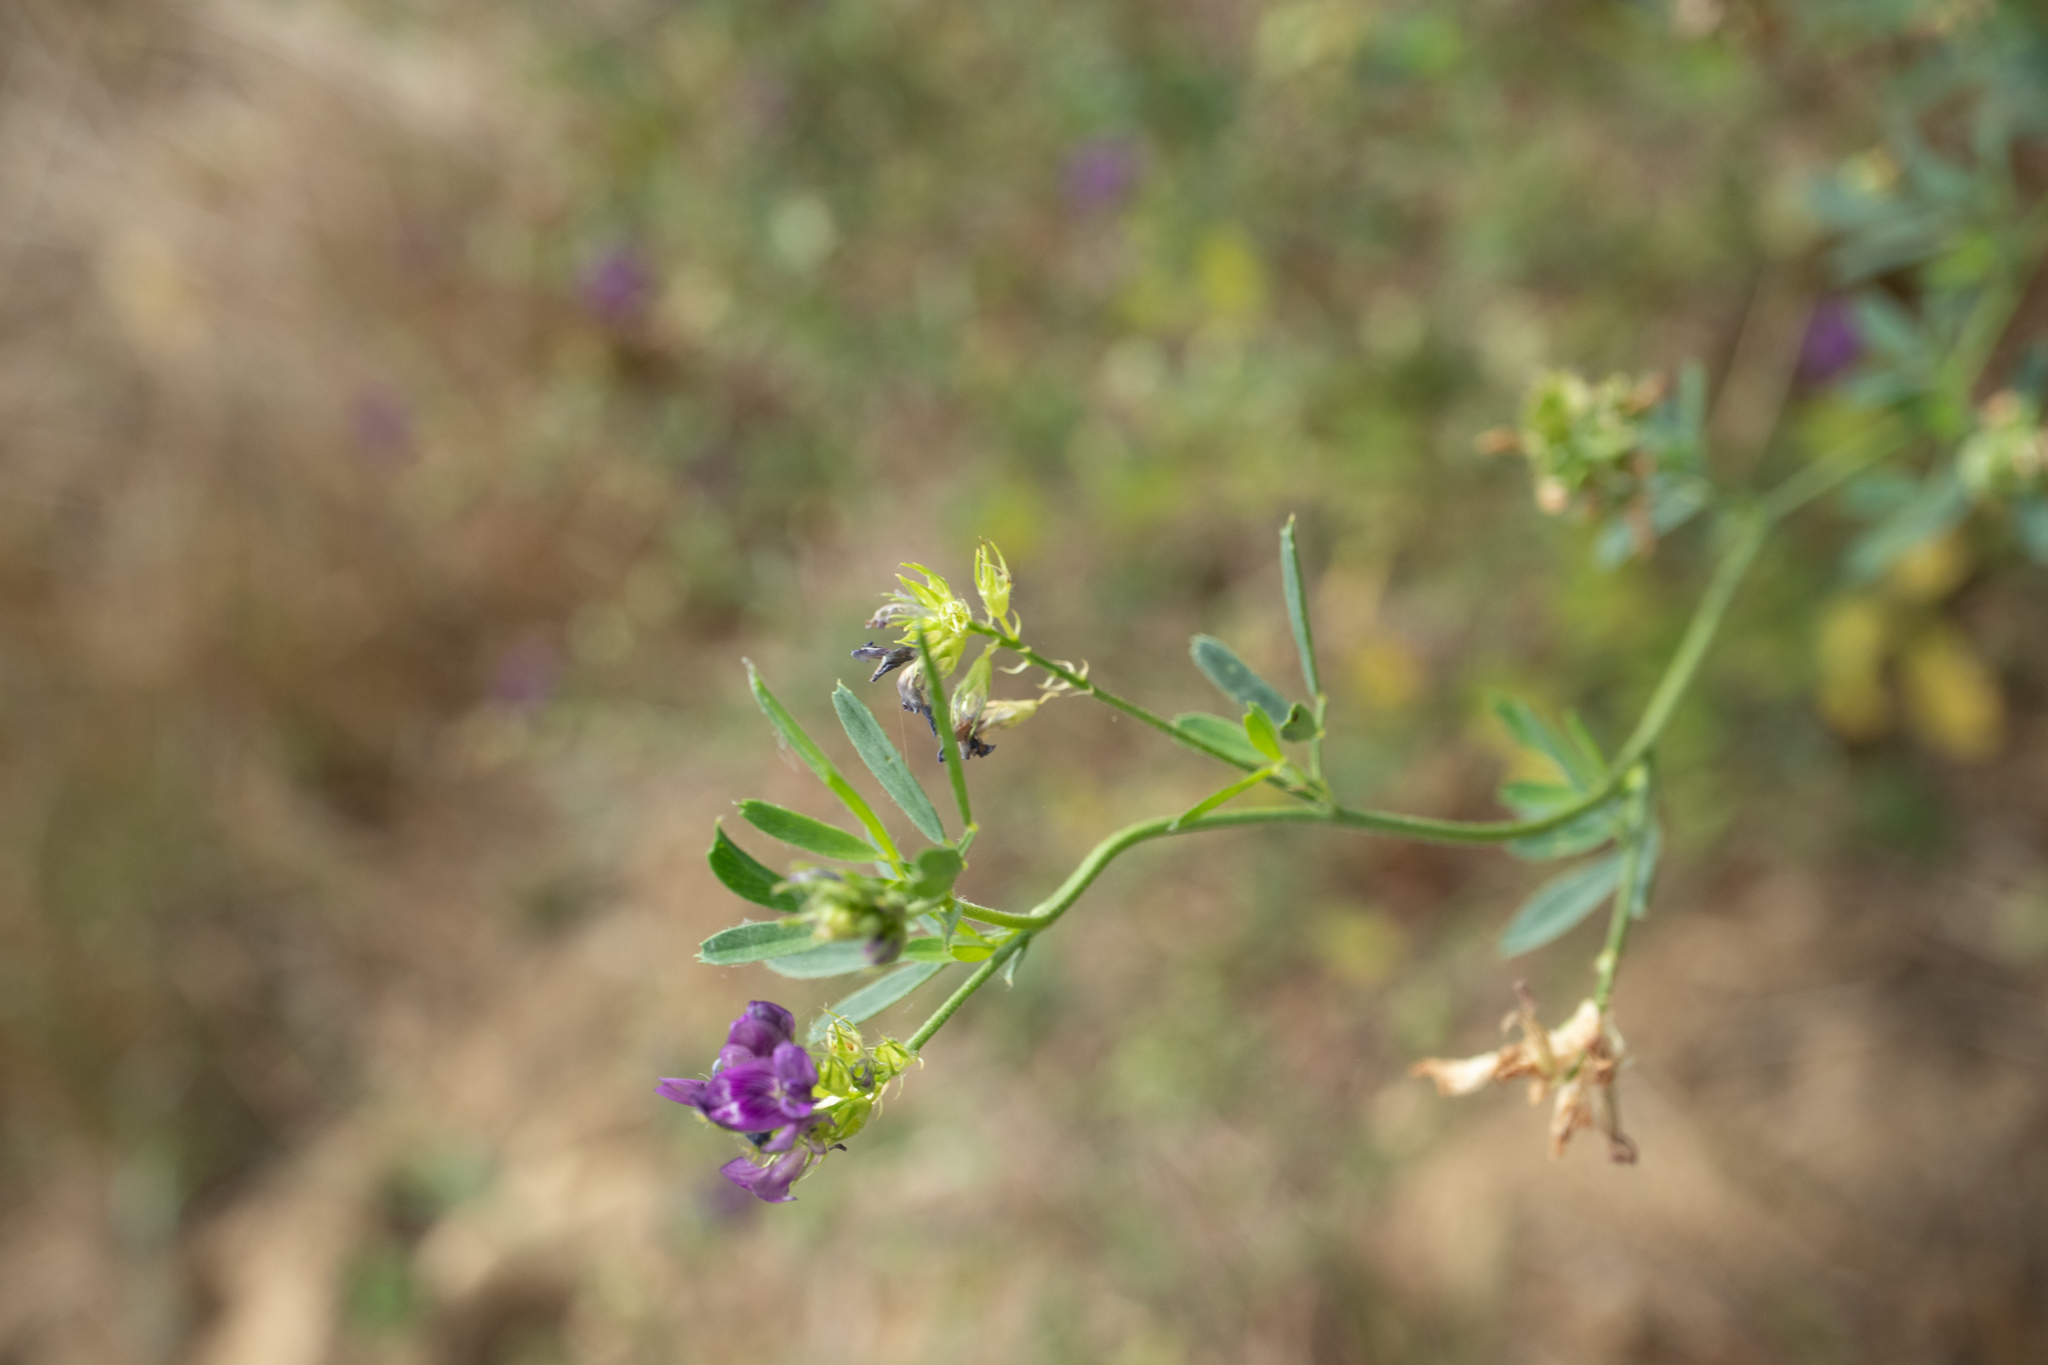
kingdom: Plantae
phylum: Tracheophyta
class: Magnoliopsida
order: Fabales
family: Fabaceae
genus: Medicago
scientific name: Medicago sativa
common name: Alfalfa
